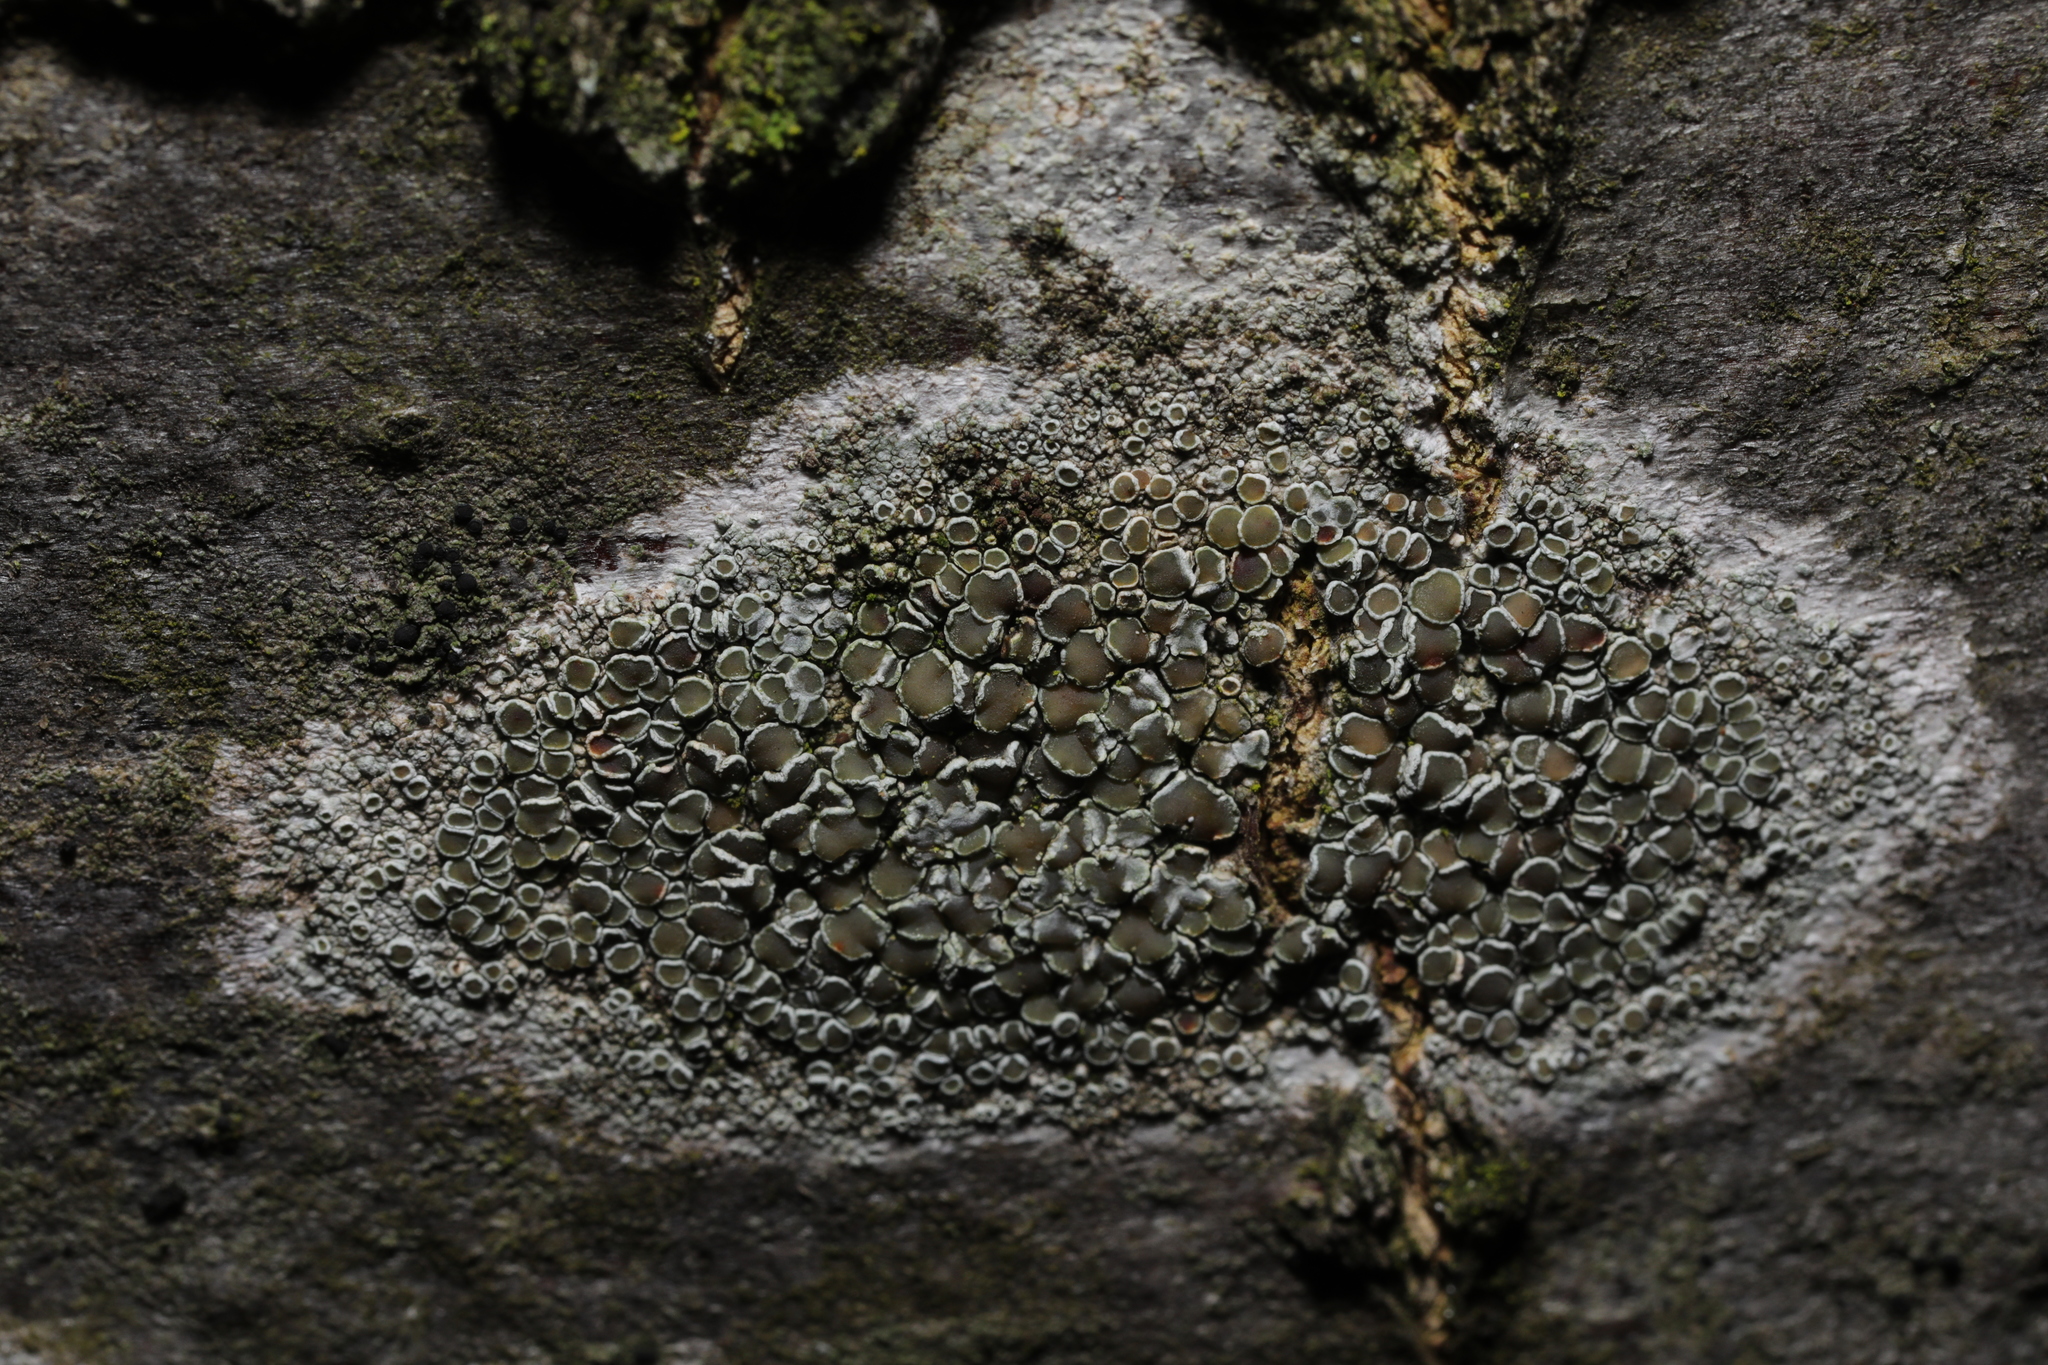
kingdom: Fungi
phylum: Ascomycota
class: Lecanoromycetes
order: Lecanorales
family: Lecanoraceae
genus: Lecanora
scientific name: Lecanora chlarotera
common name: Brown rim-lichen
